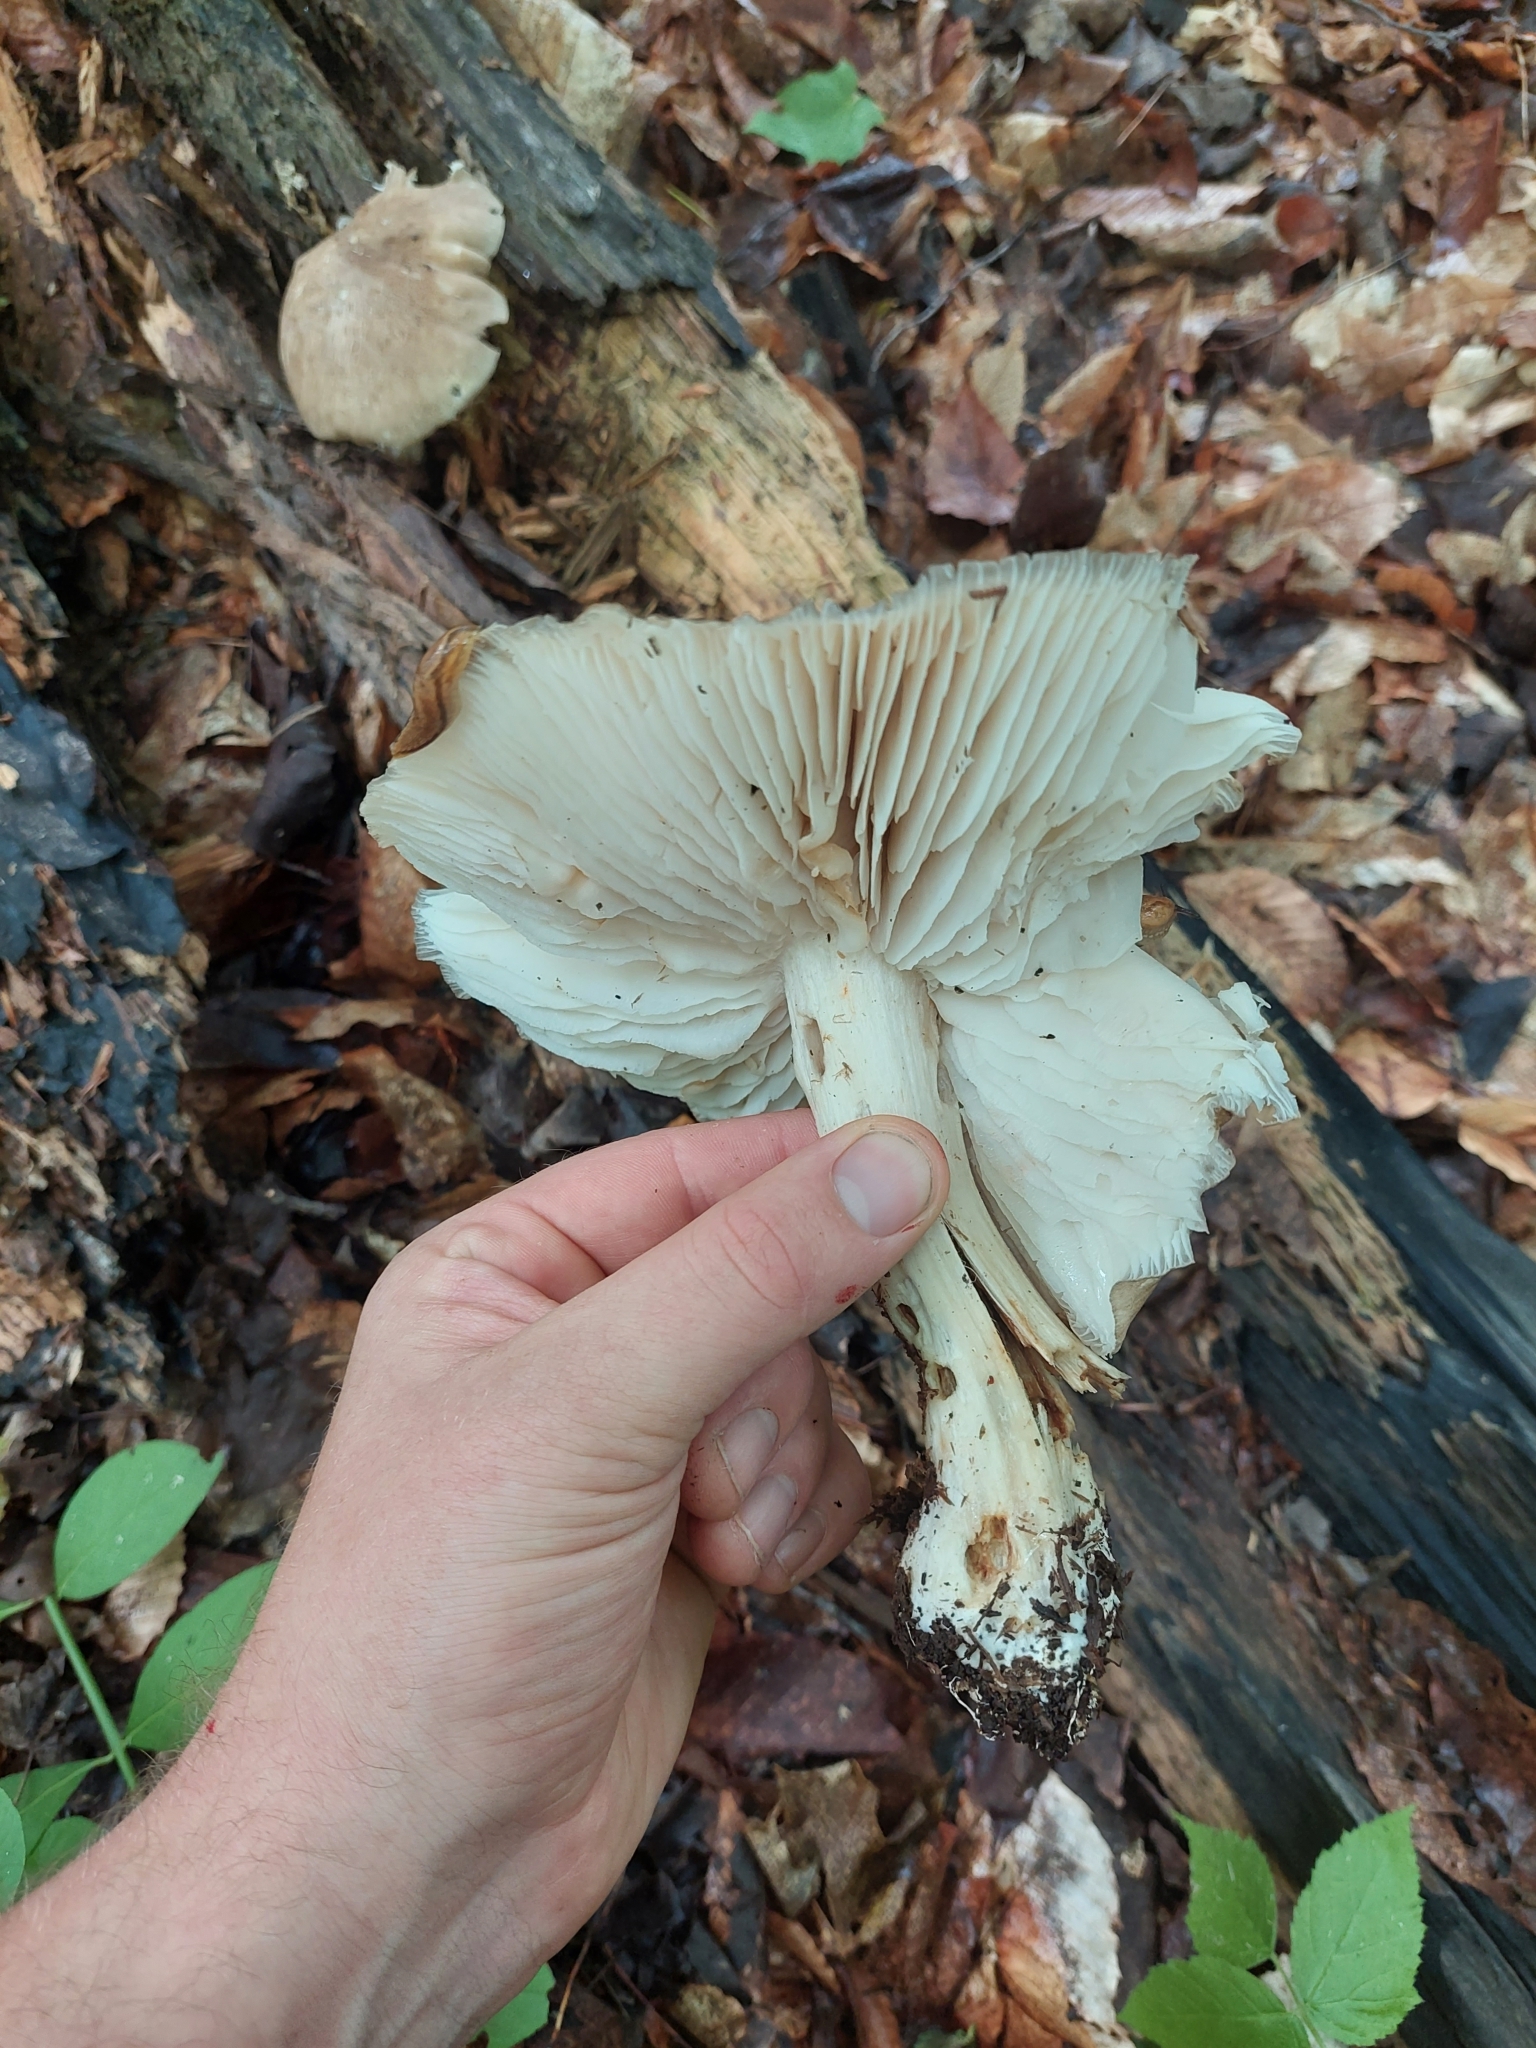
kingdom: Fungi
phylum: Basidiomycota
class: Agaricomycetes
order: Agaricales
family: Tricholomataceae
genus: Megacollybia
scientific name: Megacollybia rodmanii
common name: Eastern american platterful mushroom
